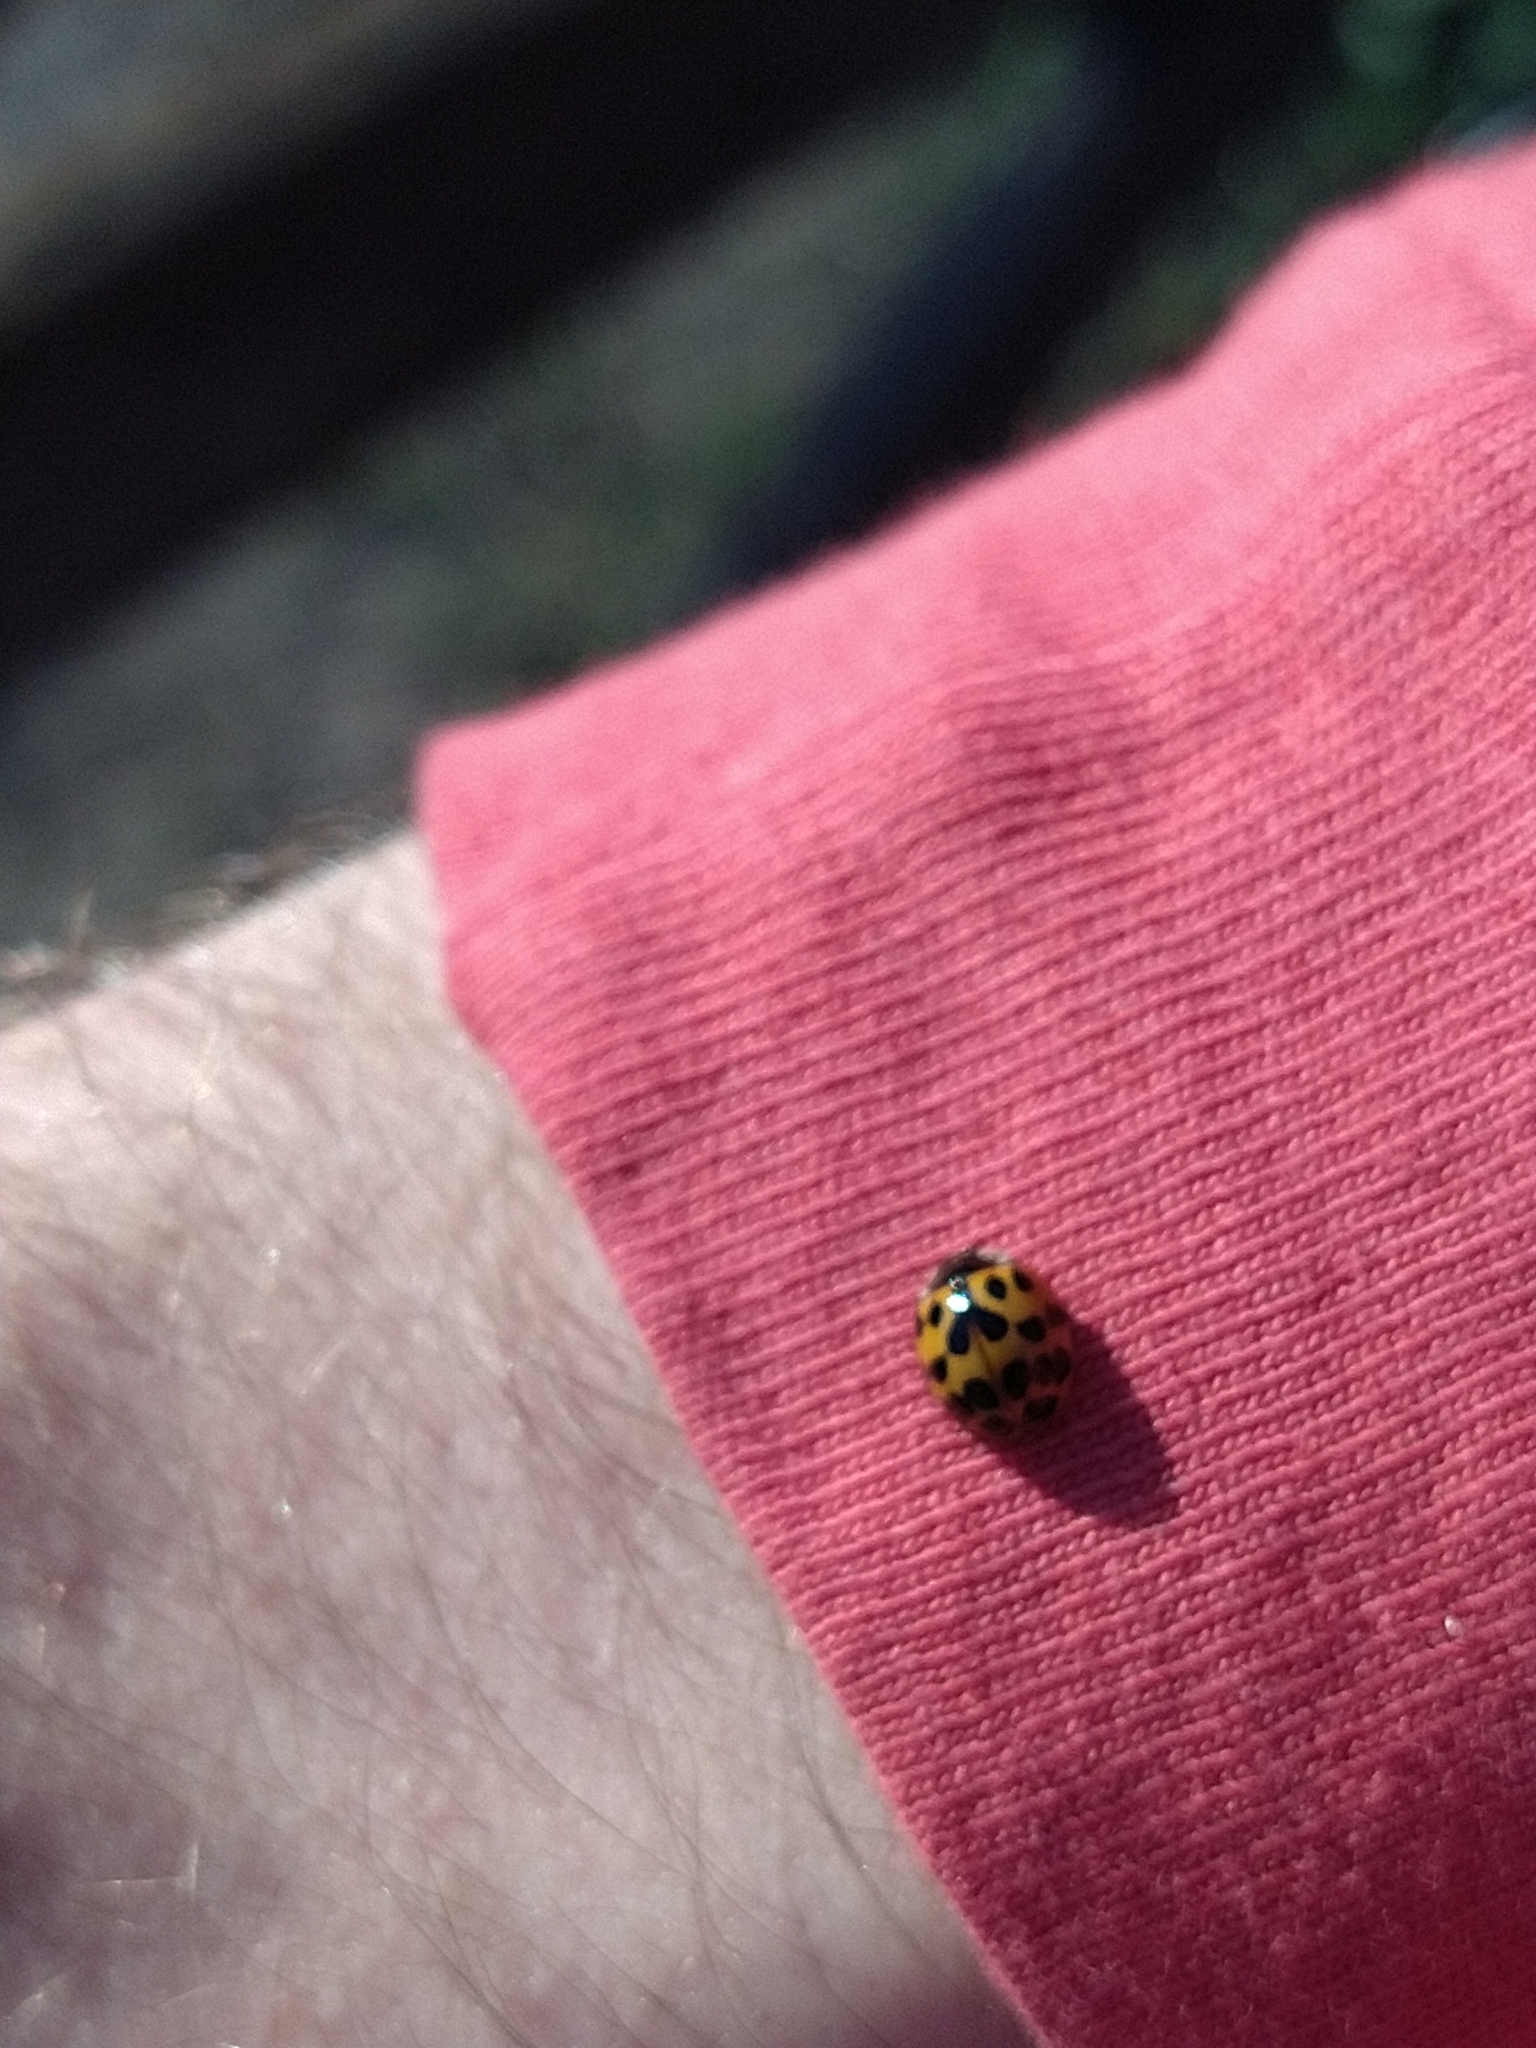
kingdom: Animalia
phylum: Arthropoda
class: Insecta
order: Coleoptera
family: Coccinellidae
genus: Harmonia
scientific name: Harmonia axyridis
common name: Harlequin ladybird
